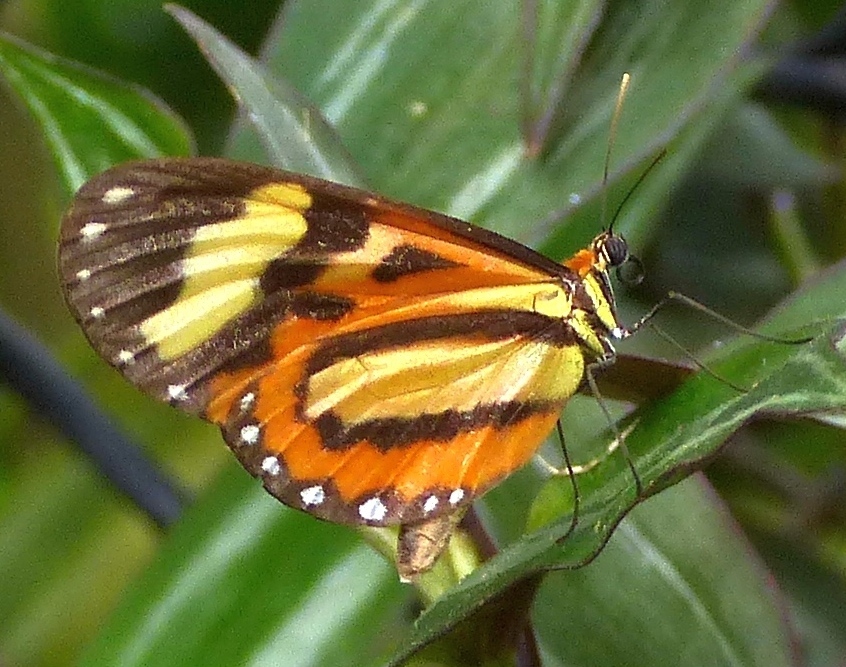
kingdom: Animalia
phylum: Arthropoda
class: Insecta
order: Lepidoptera
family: Nymphalidae
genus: Hypothyris
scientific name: Hypothyris euclea
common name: Euclea tigerwing
